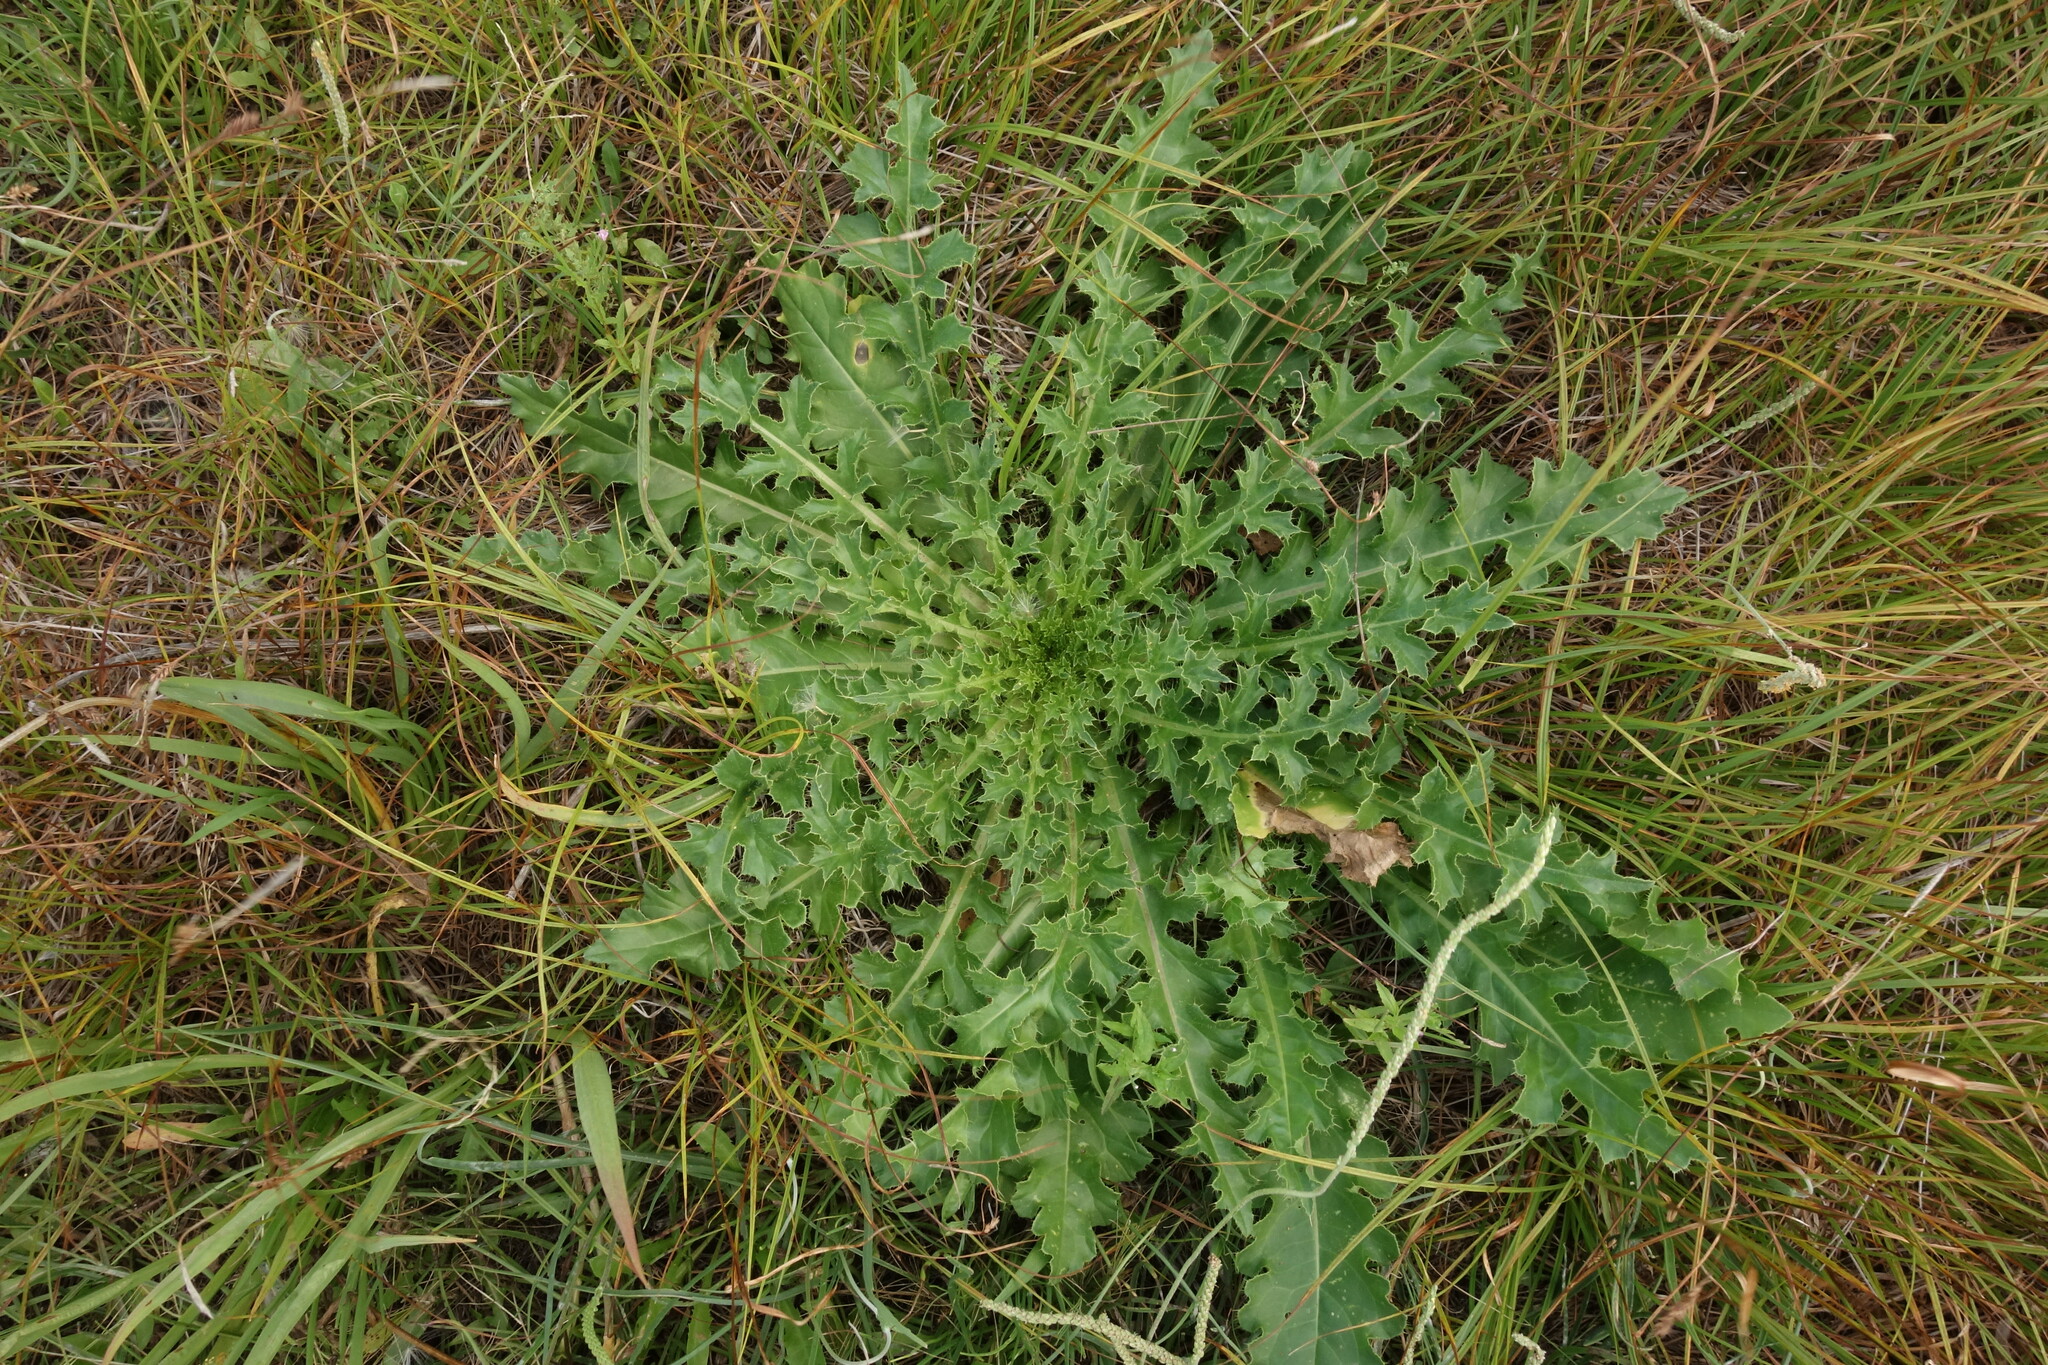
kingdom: Plantae
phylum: Tracheophyta
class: Magnoliopsida
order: Asterales
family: Asteraceae
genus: Cirsium
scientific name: Cirsium esculentum
